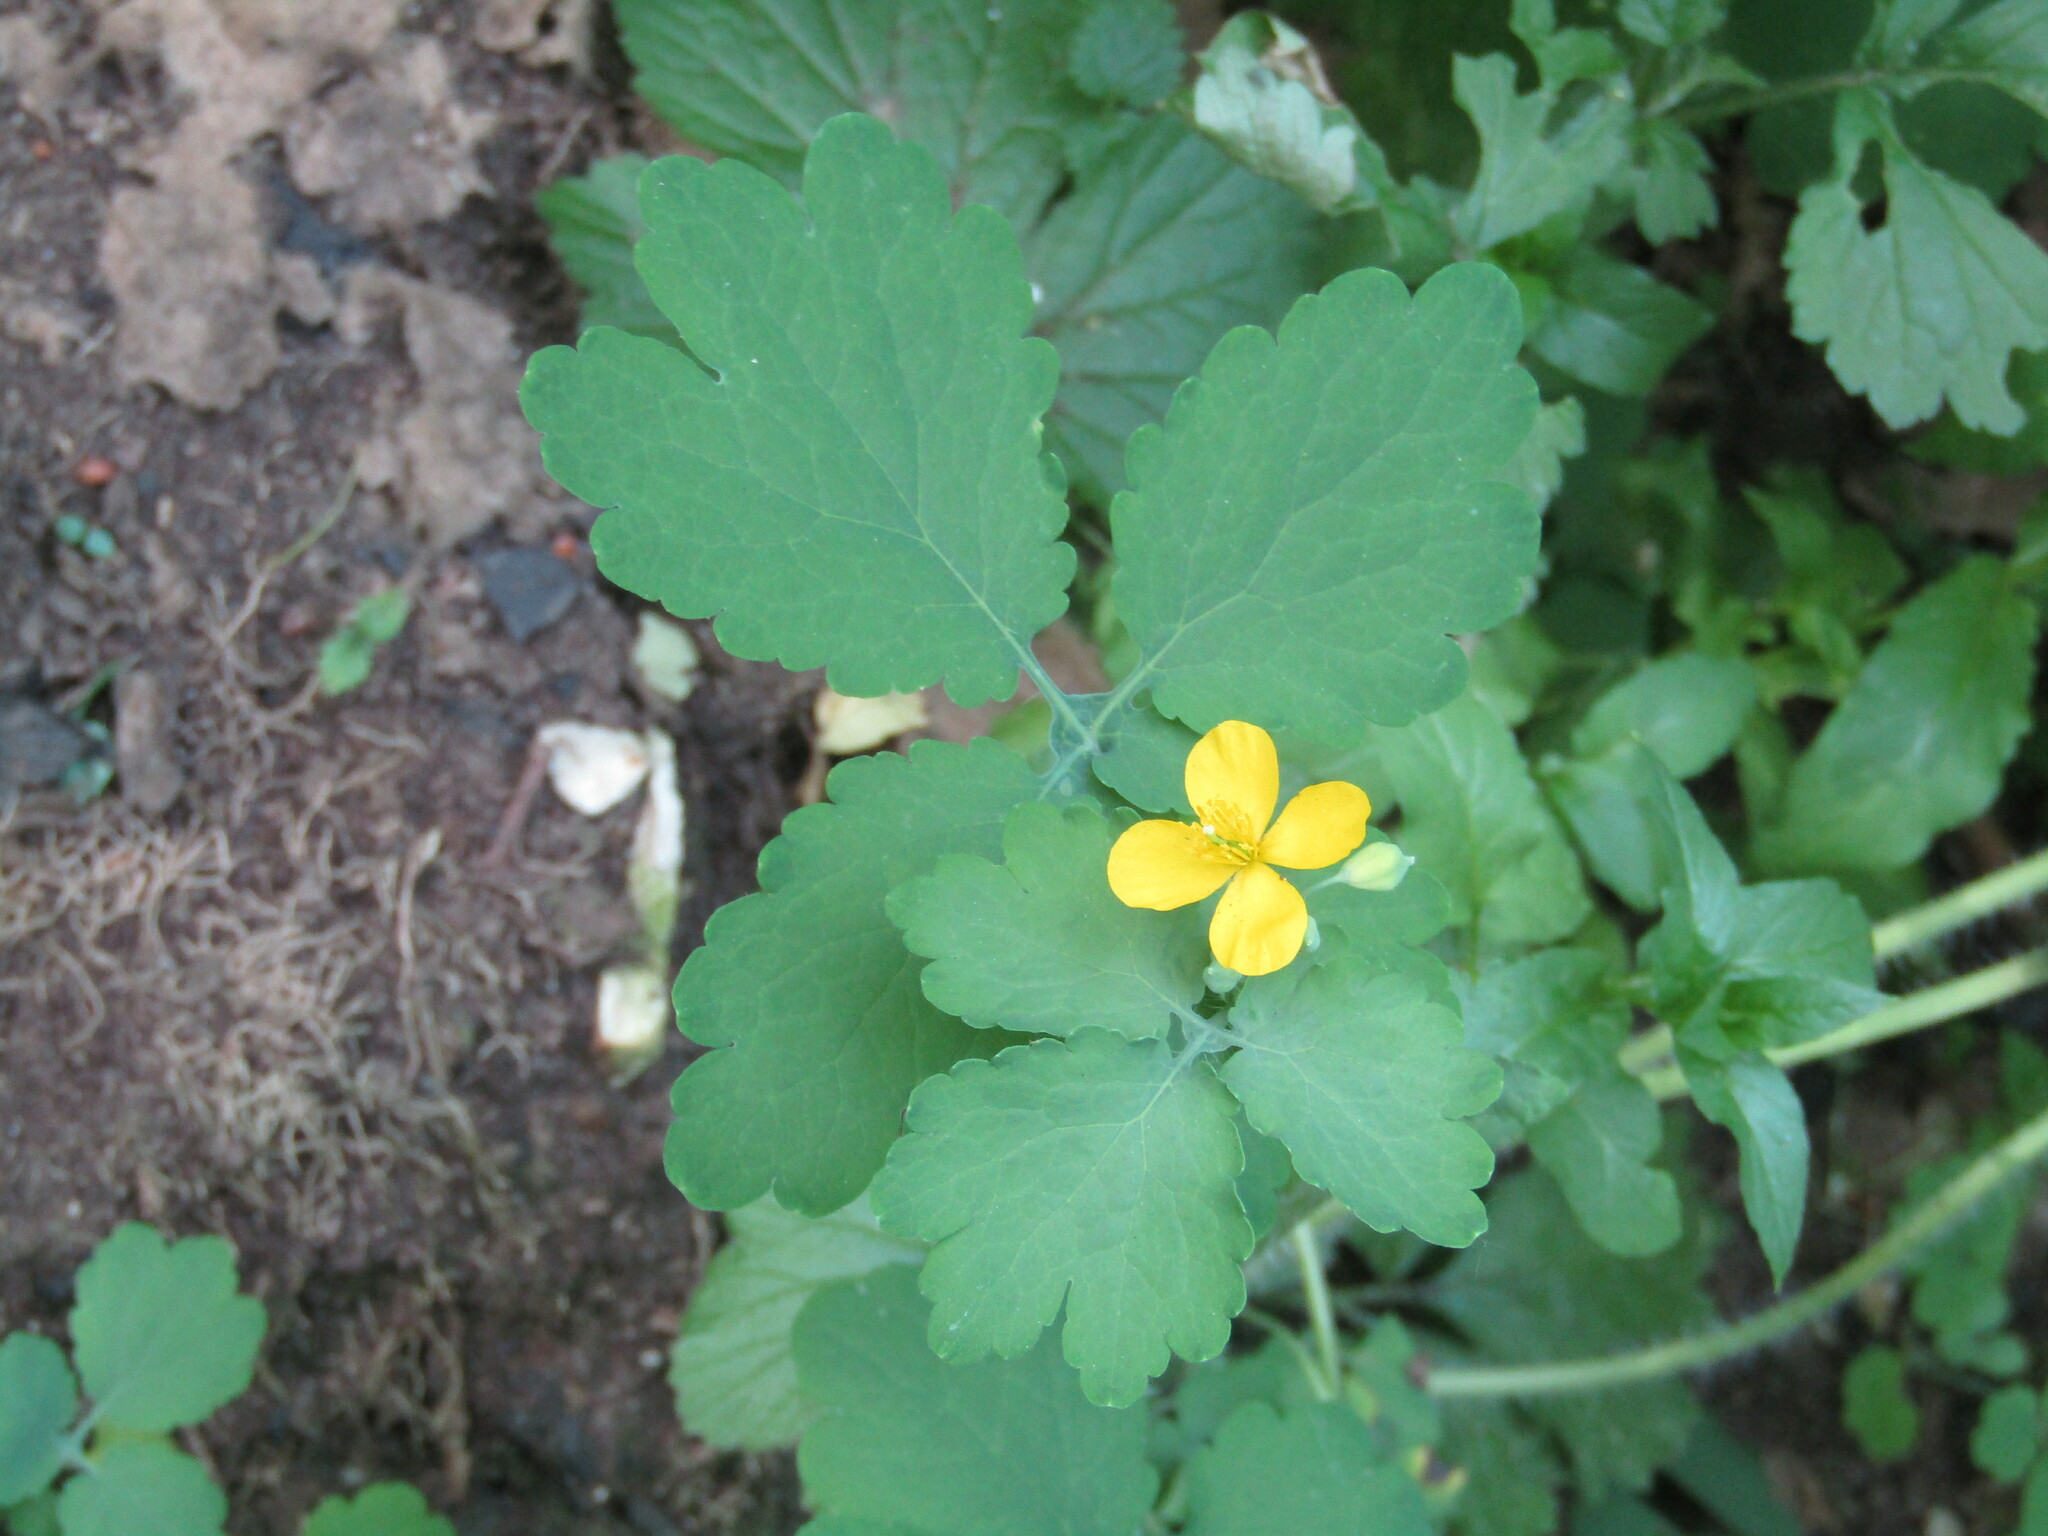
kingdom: Plantae
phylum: Tracheophyta
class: Magnoliopsida
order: Ranunculales
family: Papaveraceae
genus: Chelidonium
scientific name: Chelidonium majus
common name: Greater celandine
